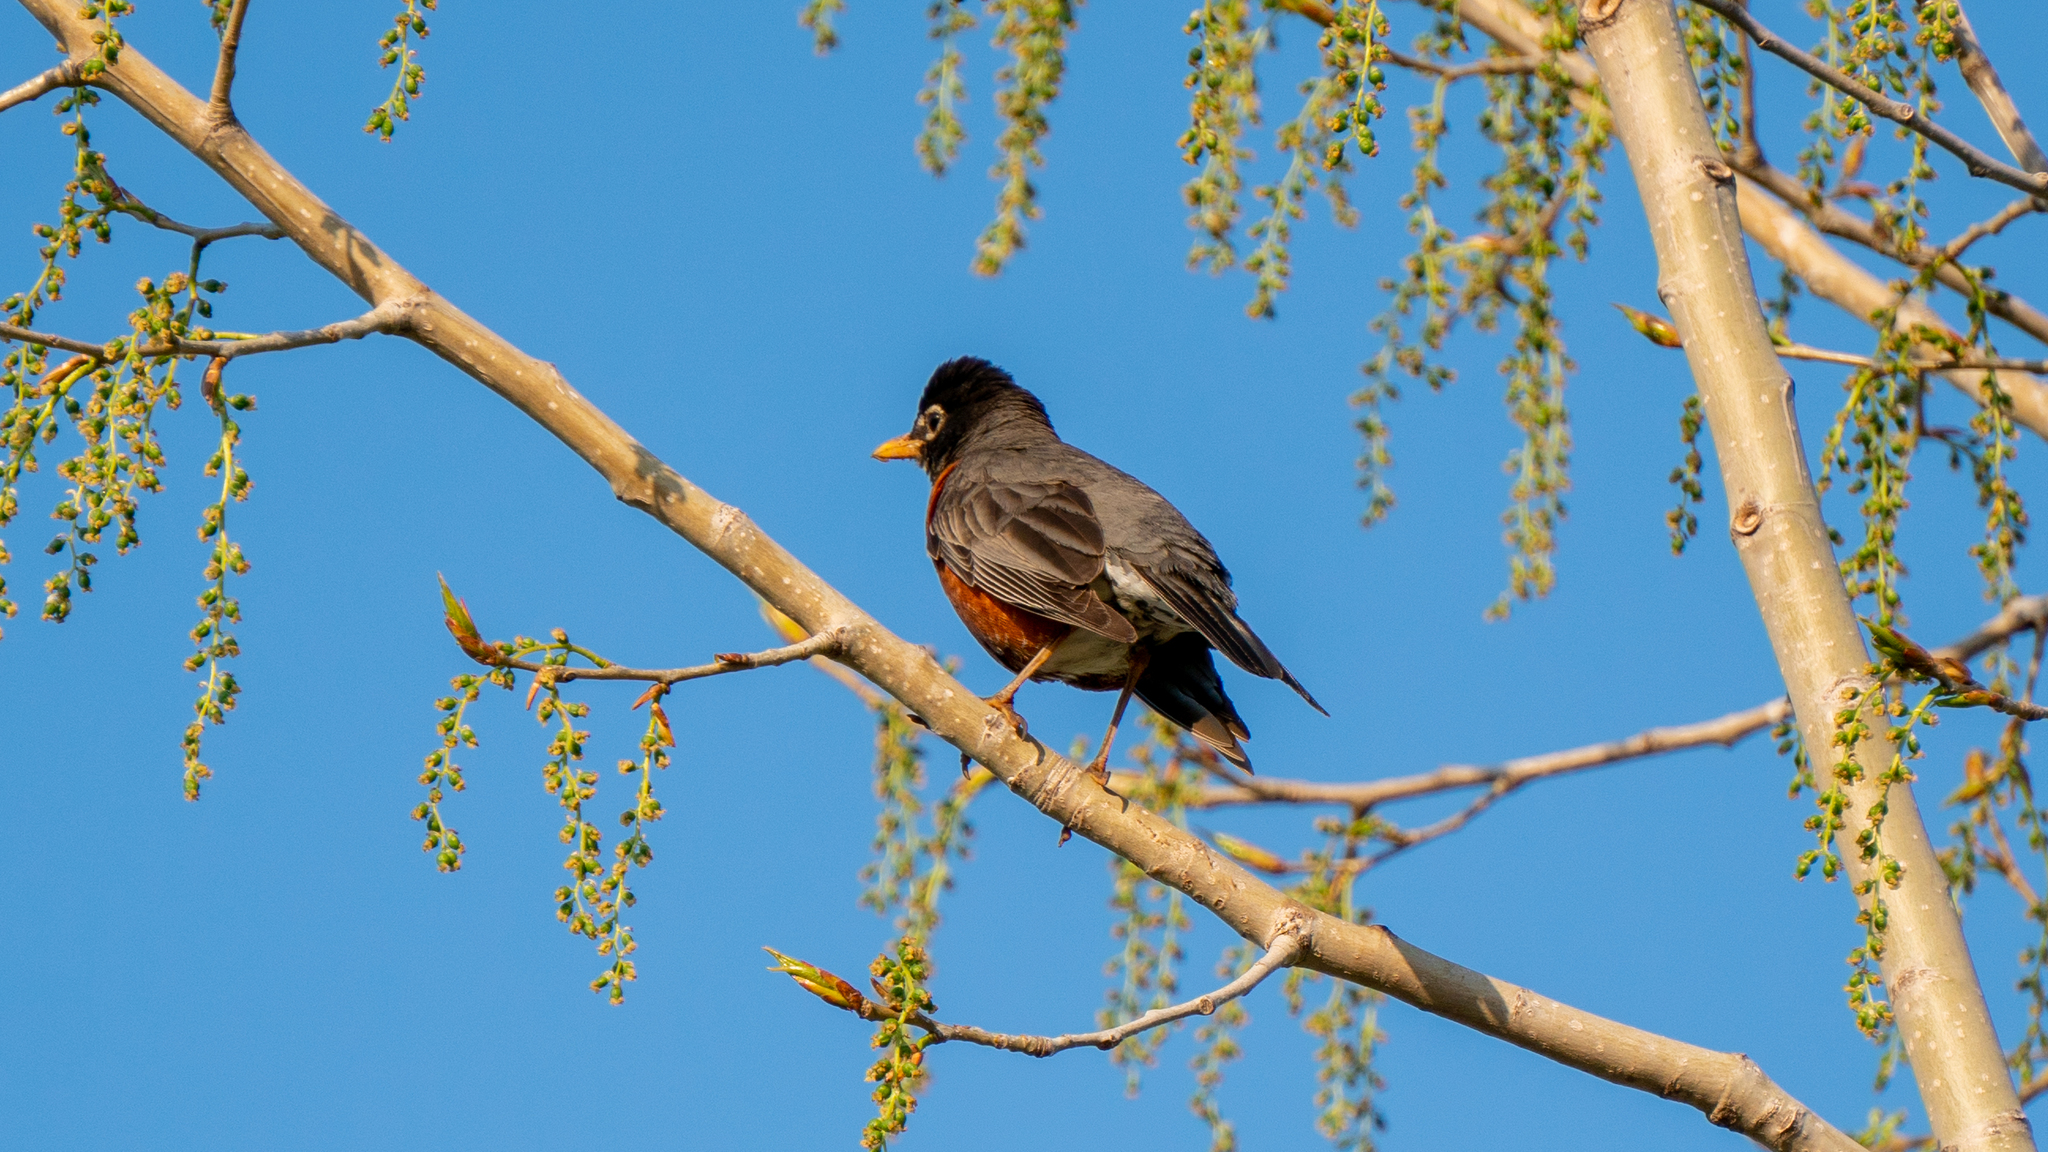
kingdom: Animalia
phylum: Chordata
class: Aves
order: Passeriformes
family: Turdidae
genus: Turdus
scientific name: Turdus migratorius
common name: American robin
